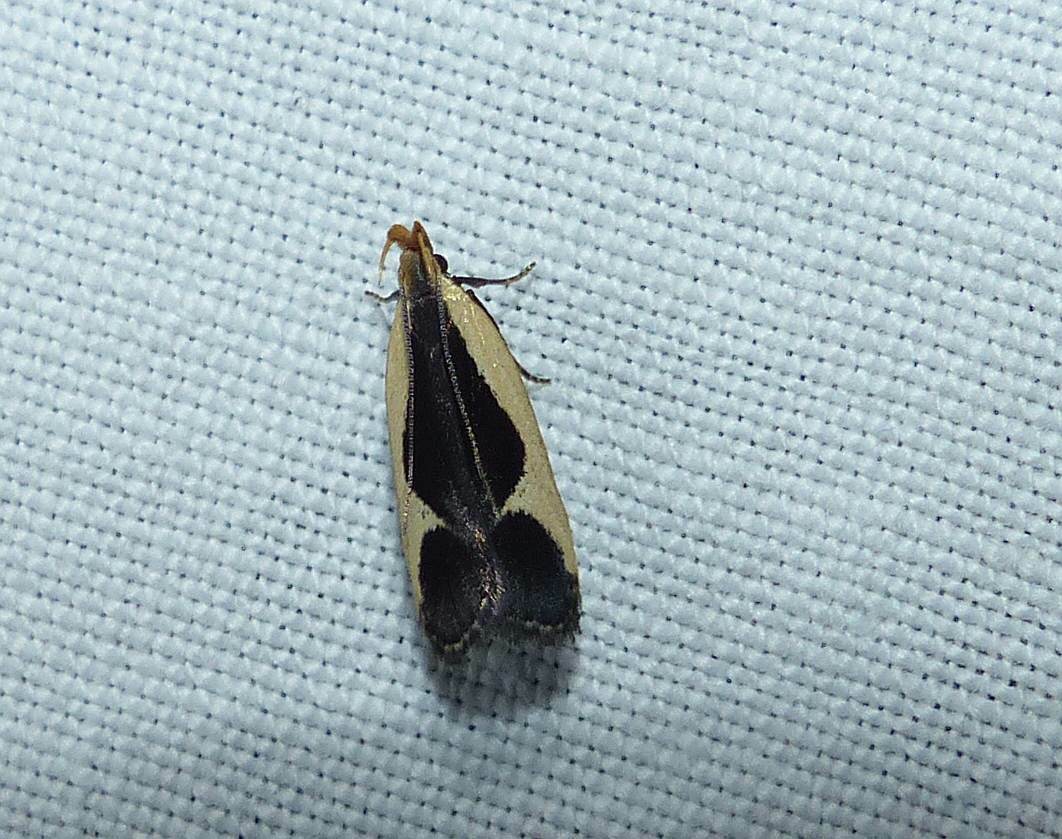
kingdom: Animalia
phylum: Arthropoda
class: Insecta
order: Lepidoptera
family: Gelechiidae
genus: Dichomeris
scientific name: Dichomeris flavocostella
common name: Cream-edged dichomeris moth
